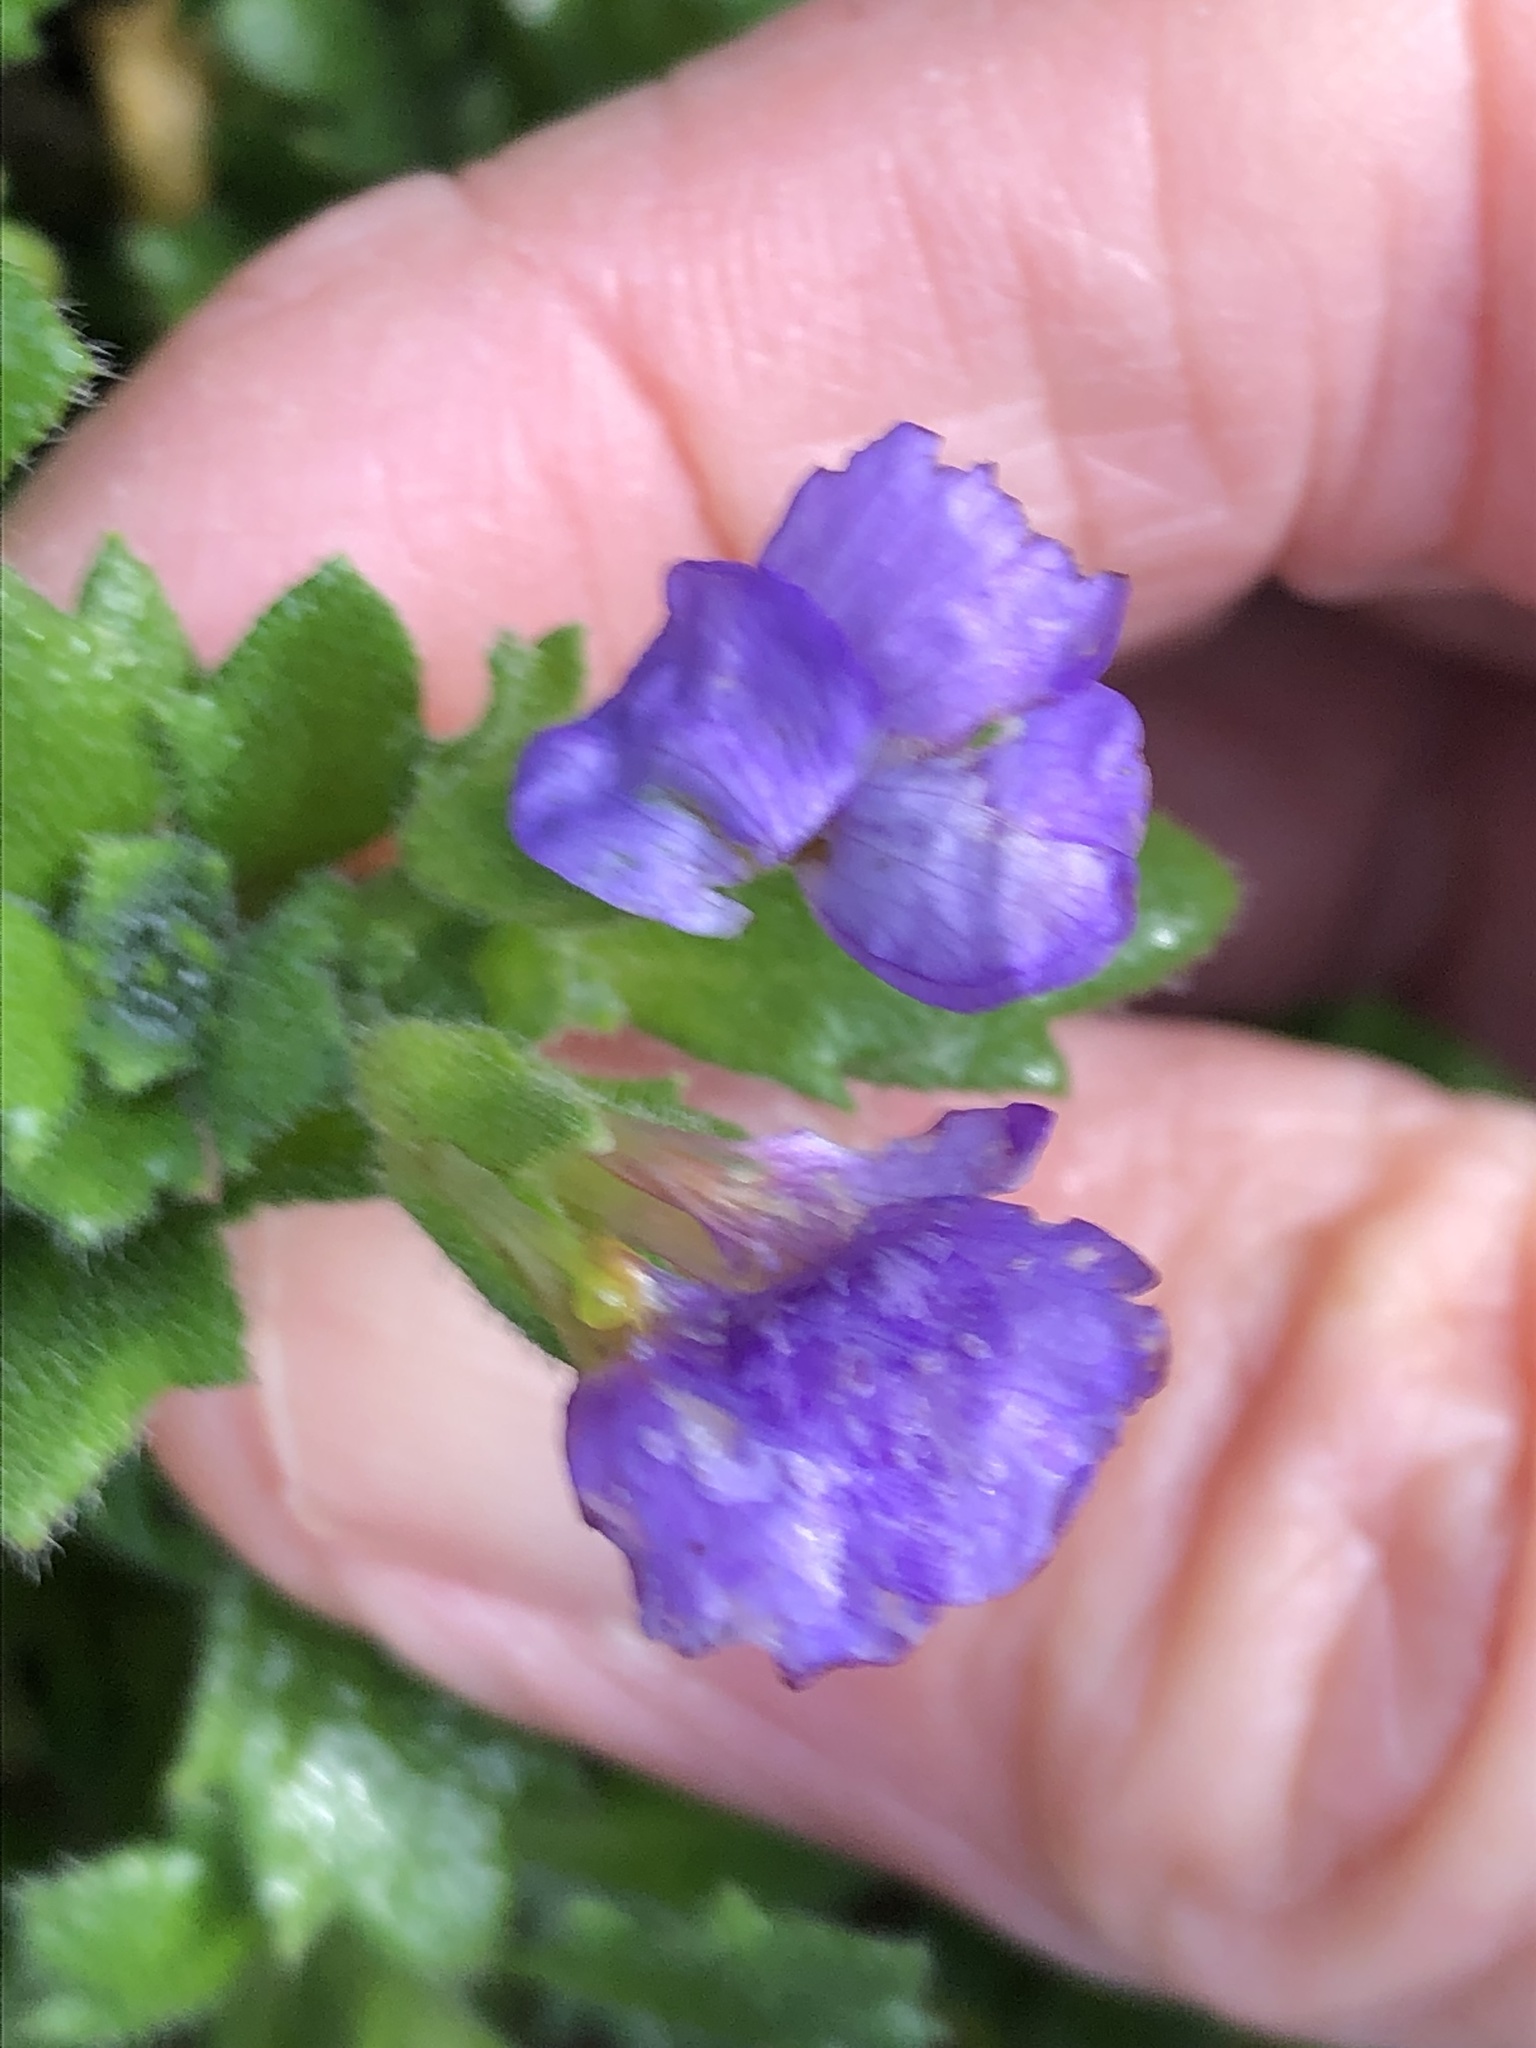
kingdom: Plantae
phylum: Tracheophyta
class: Magnoliopsida
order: Brassicales
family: Brassicaceae
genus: Aubrieta
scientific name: Aubrieta deltoidea
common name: Aubretia
